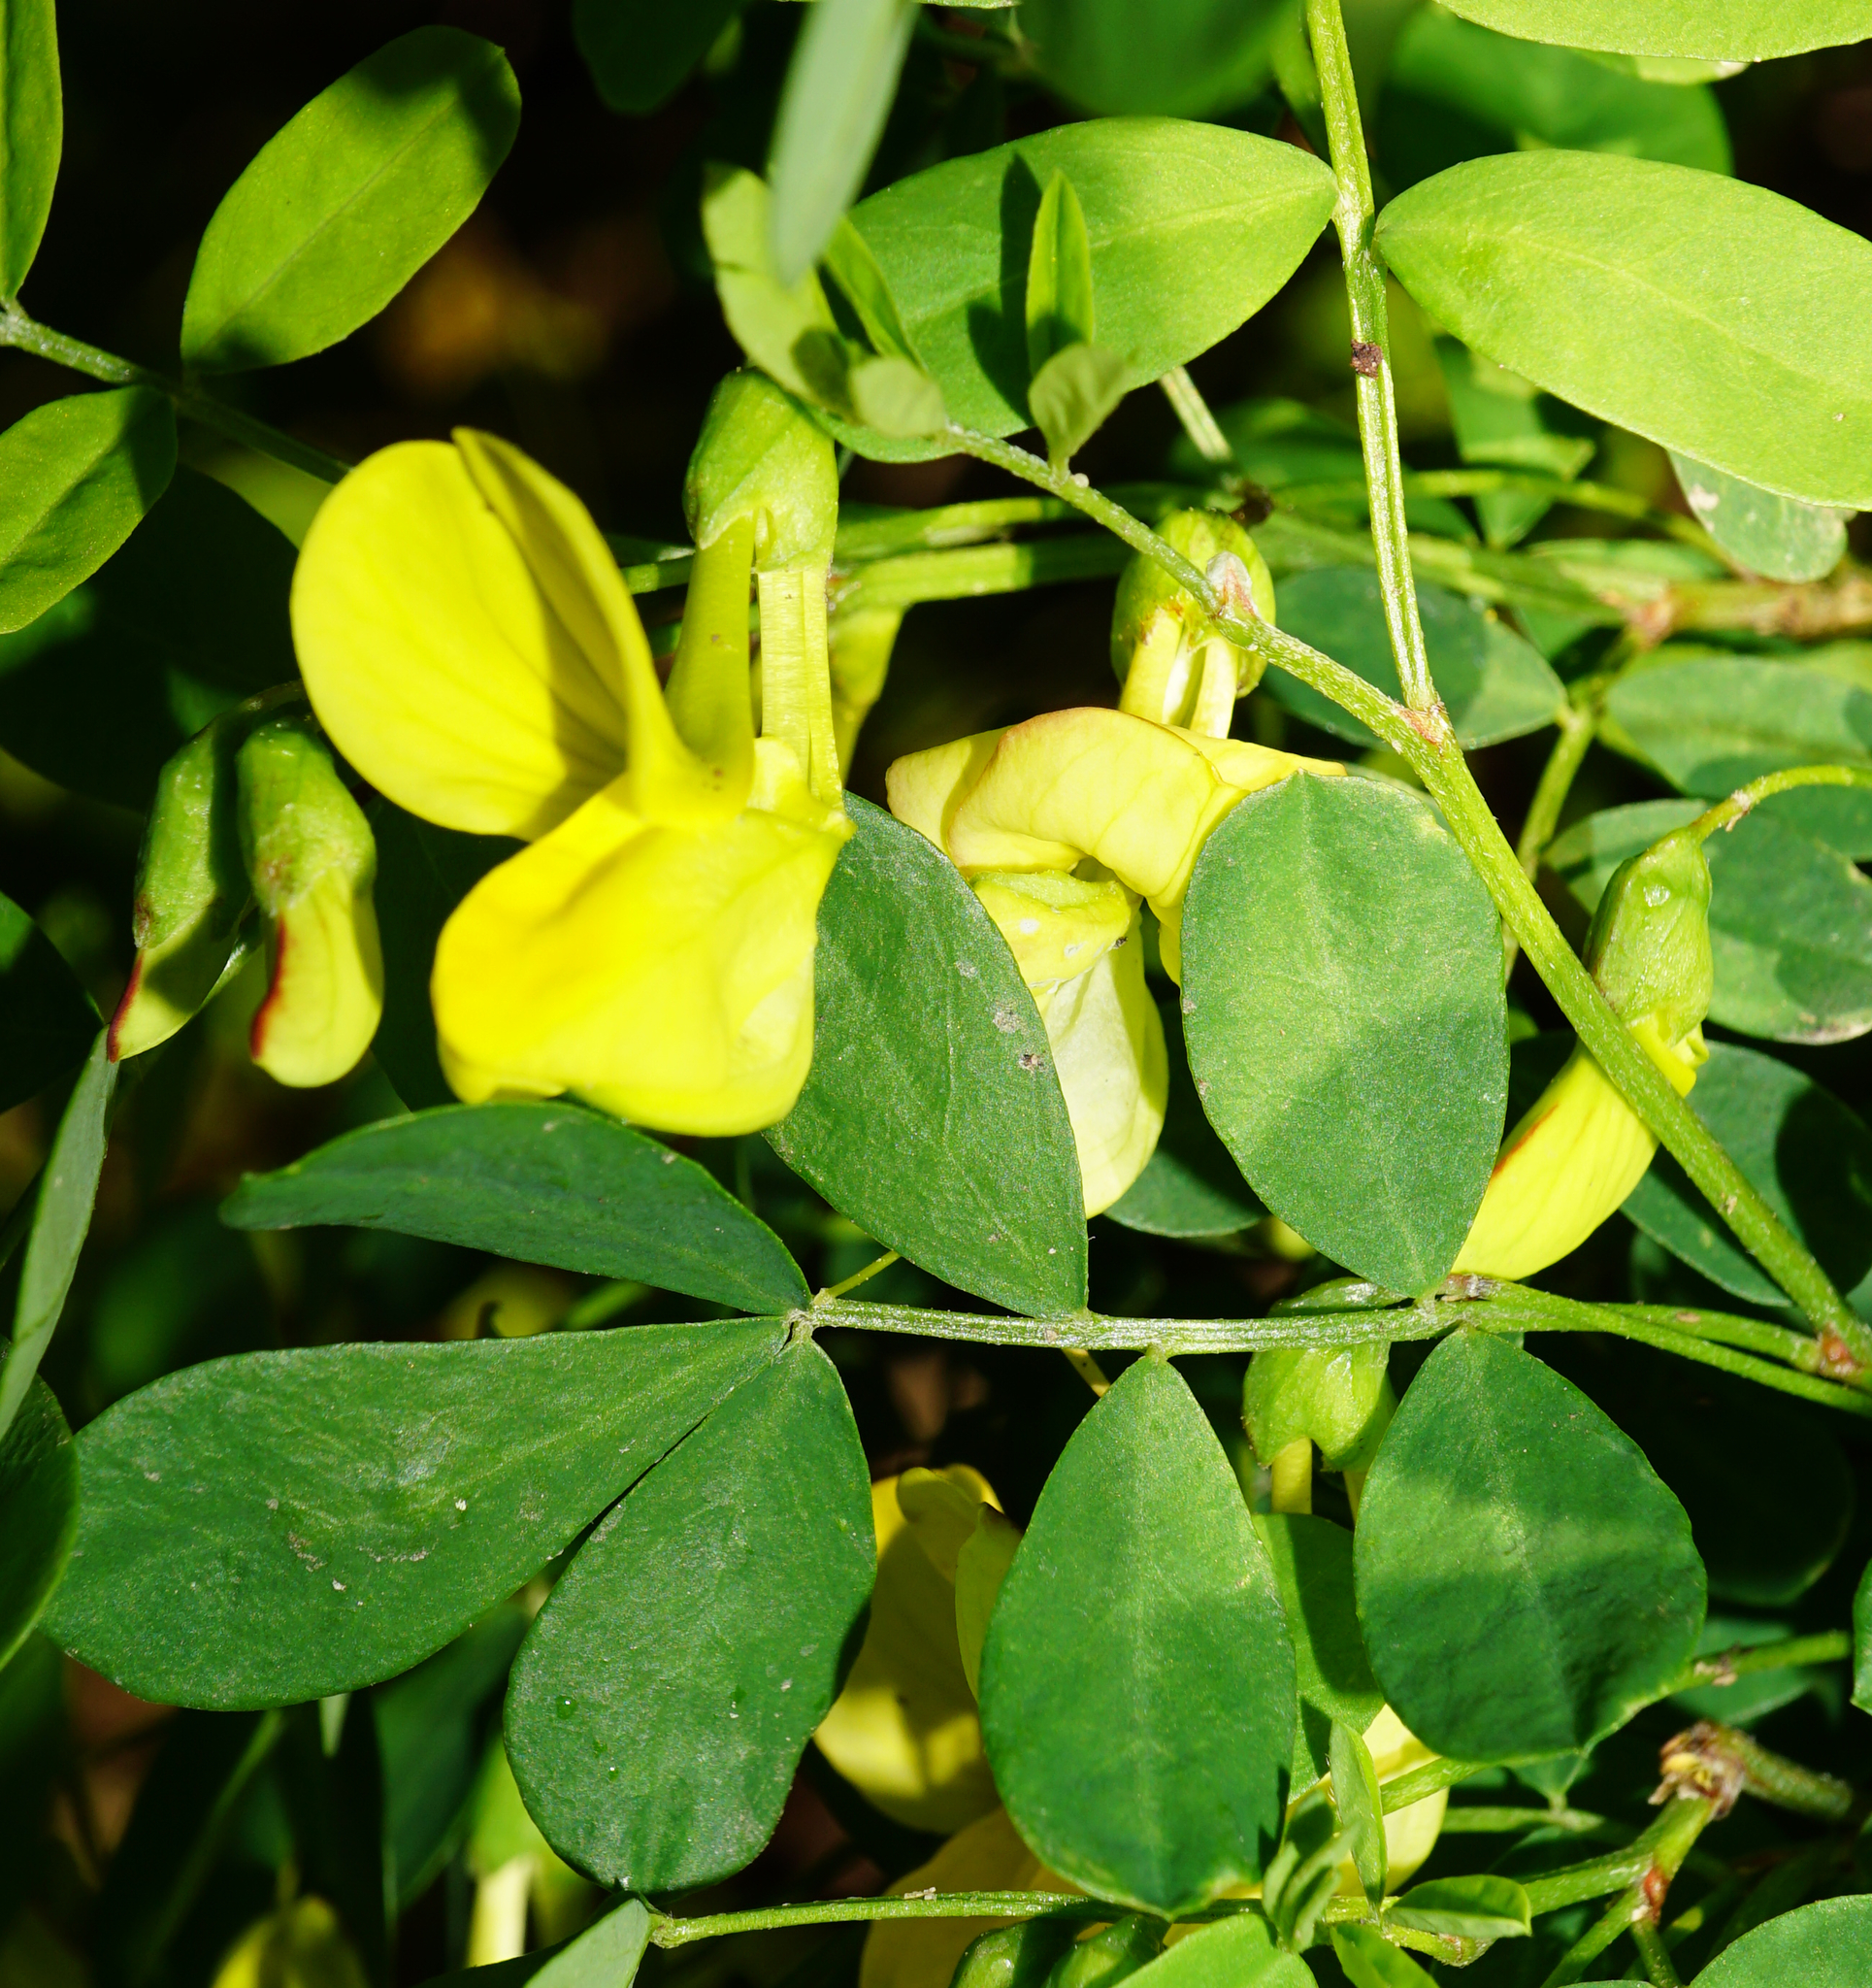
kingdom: Plantae
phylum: Tracheophyta
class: Magnoliopsida
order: Fabales
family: Fabaceae
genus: Hippocrepis
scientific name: Hippocrepis emerus
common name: Scorpion senna
